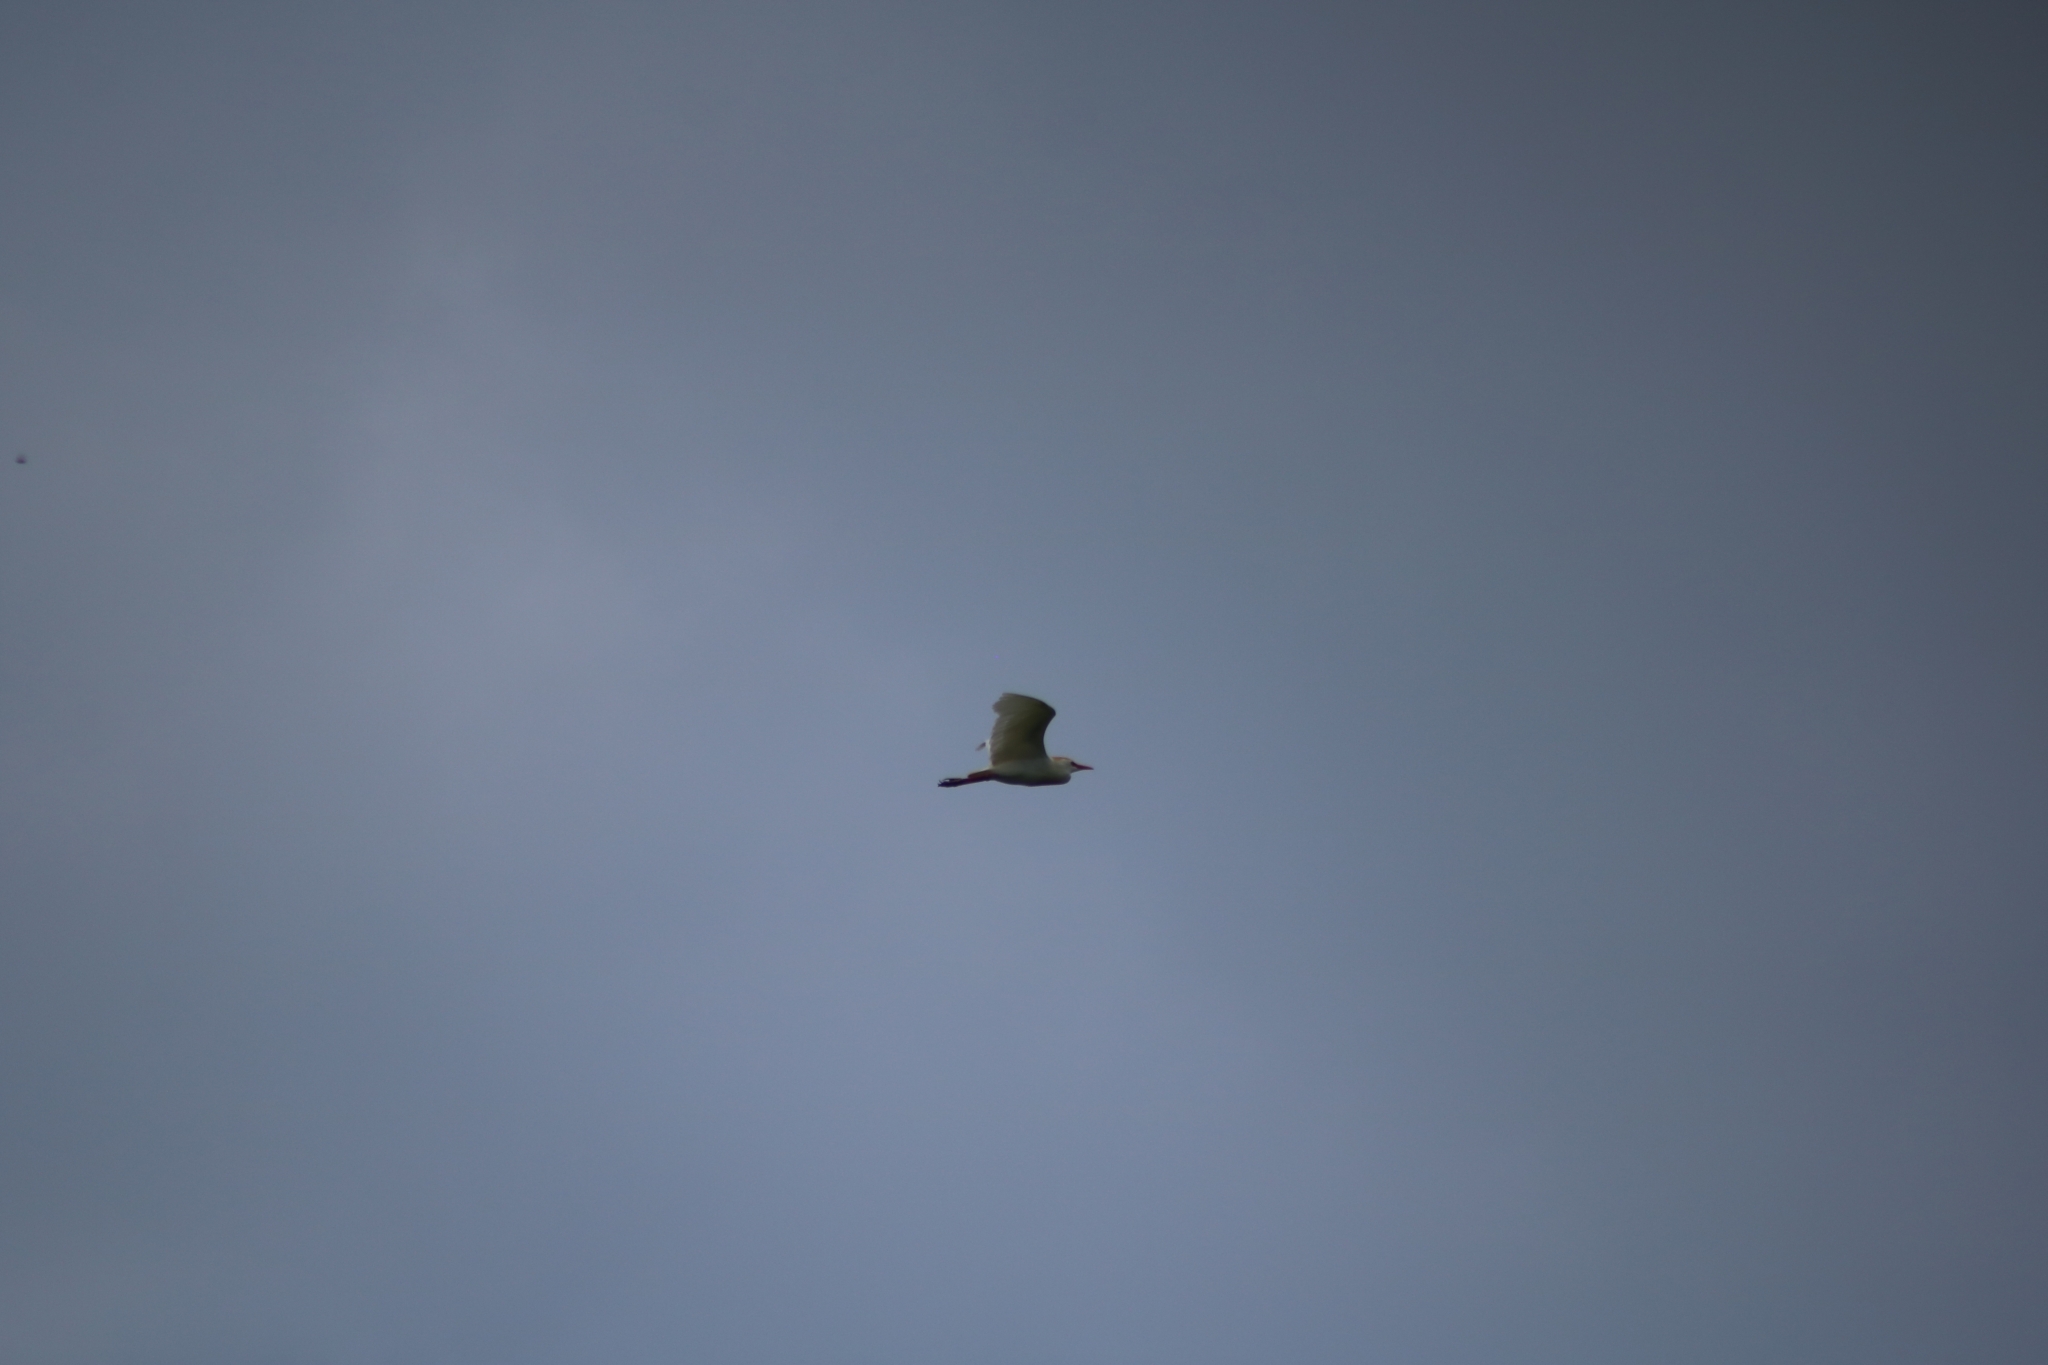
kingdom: Animalia
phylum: Chordata
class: Aves
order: Pelecaniformes
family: Ardeidae
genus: Bubulcus
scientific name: Bubulcus ibis
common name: Cattle egret
